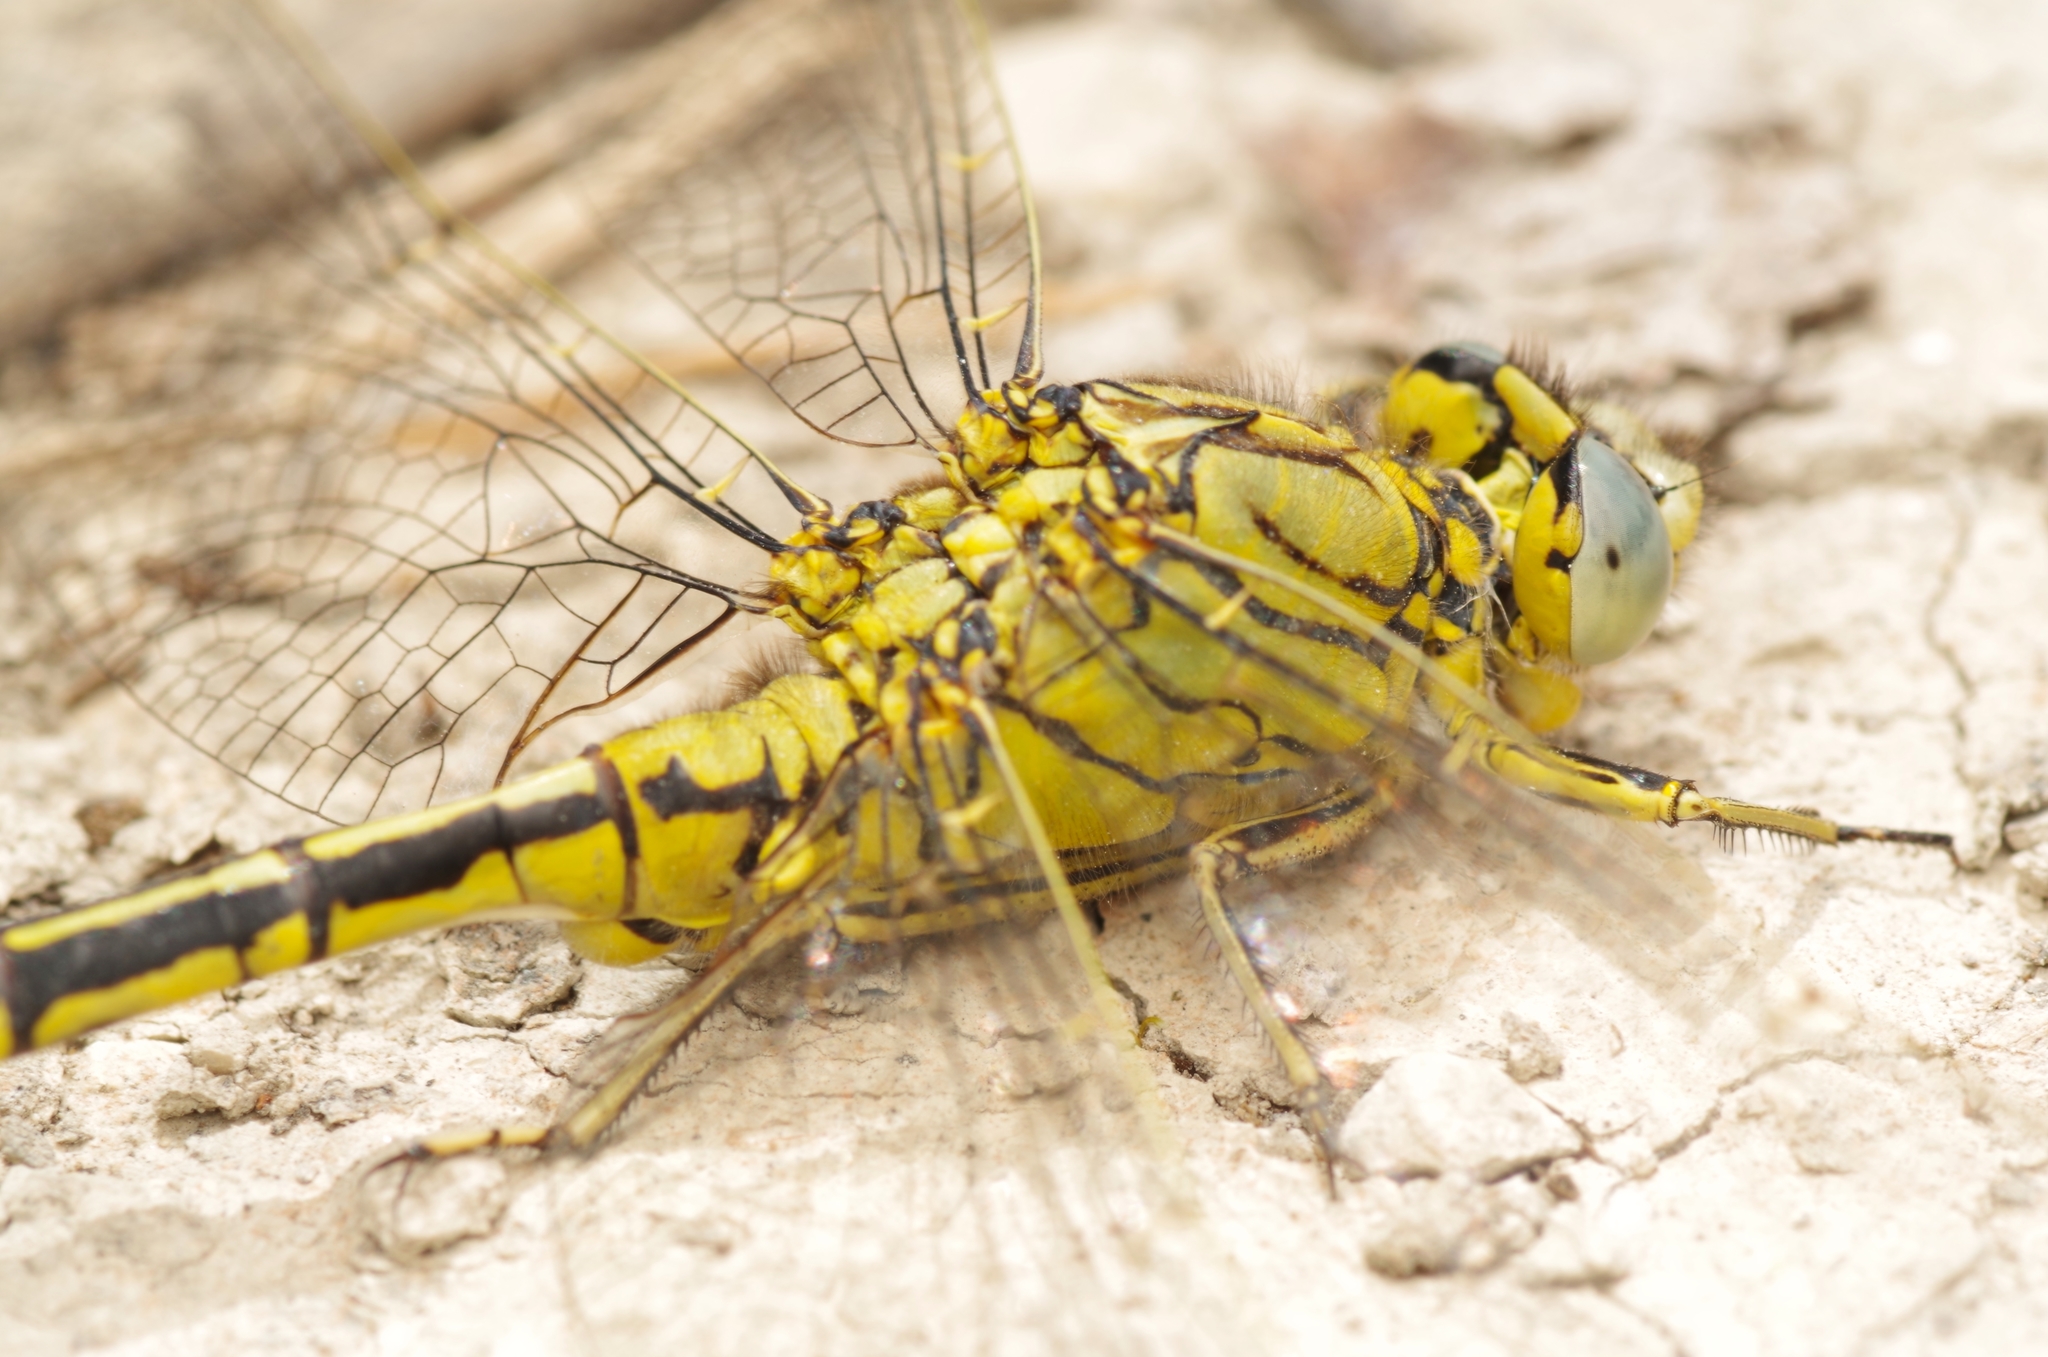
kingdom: Animalia
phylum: Arthropoda
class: Insecta
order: Odonata
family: Gomphidae
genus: Gomphus
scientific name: Gomphus pulchellus
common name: Western clubtail
